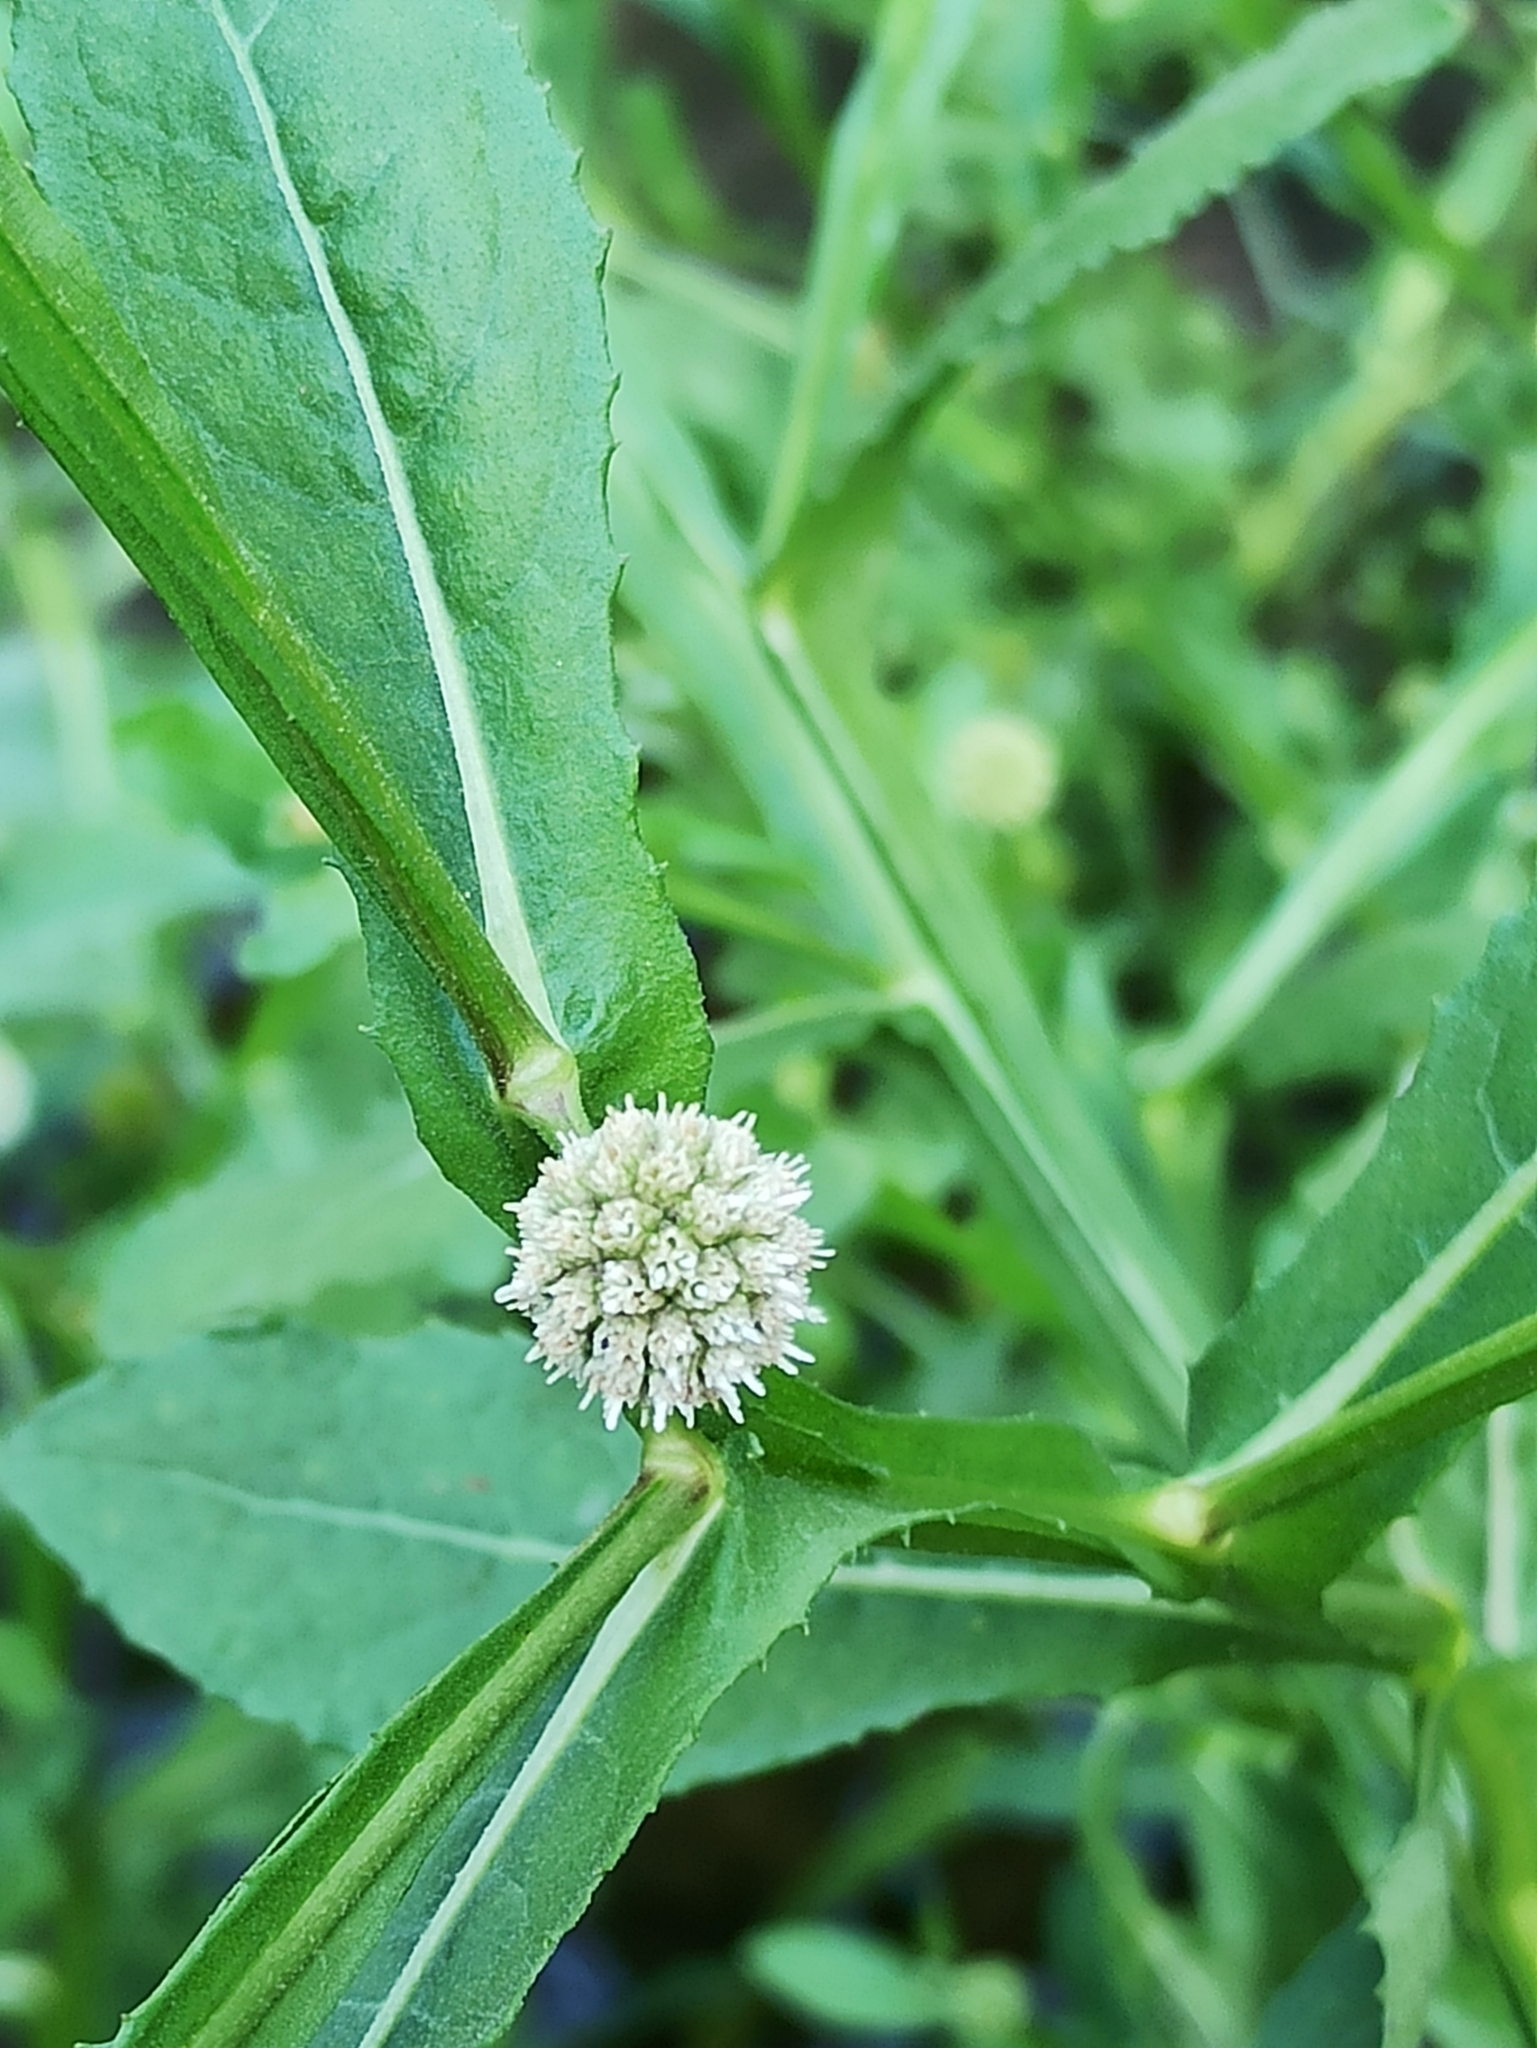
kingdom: Plantae
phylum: Tracheophyta
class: Magnoliopsida
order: Asterales
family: Asteraceae
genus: Sphaeranthus
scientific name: Sphaeranthus africanus
